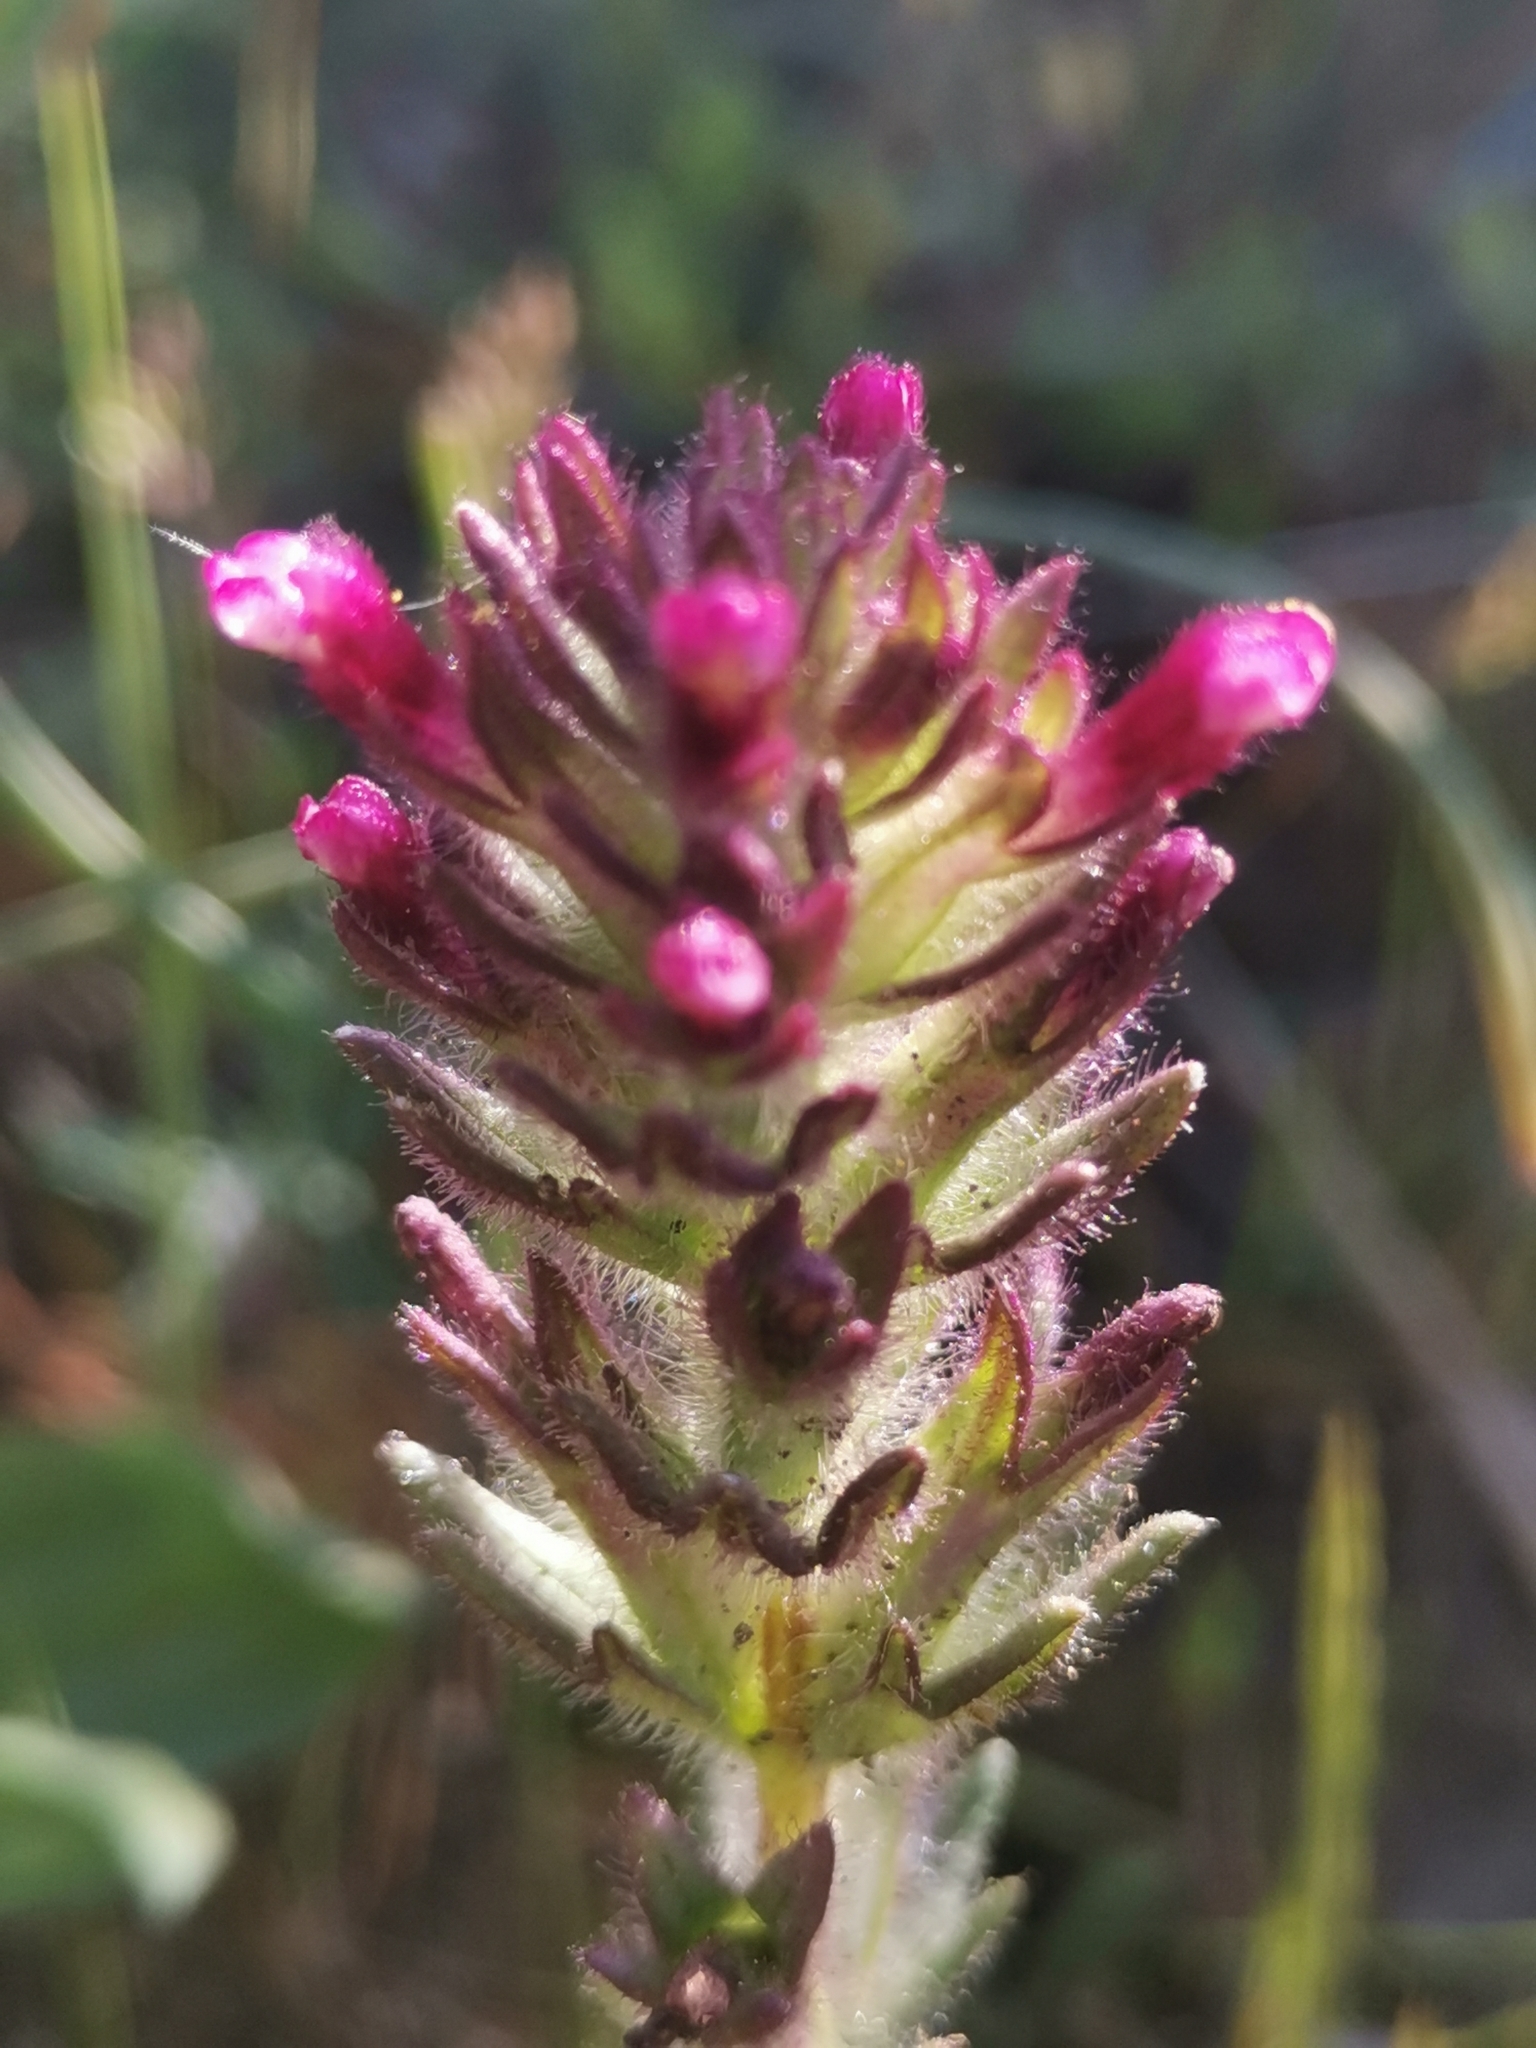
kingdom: Plantae
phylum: Tracheophyta
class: Magnoliopsida
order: Lamiales
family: Orobanchaceae
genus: Parentucellia
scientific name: Parentucellia latifolia
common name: Broadleaf glandweed
